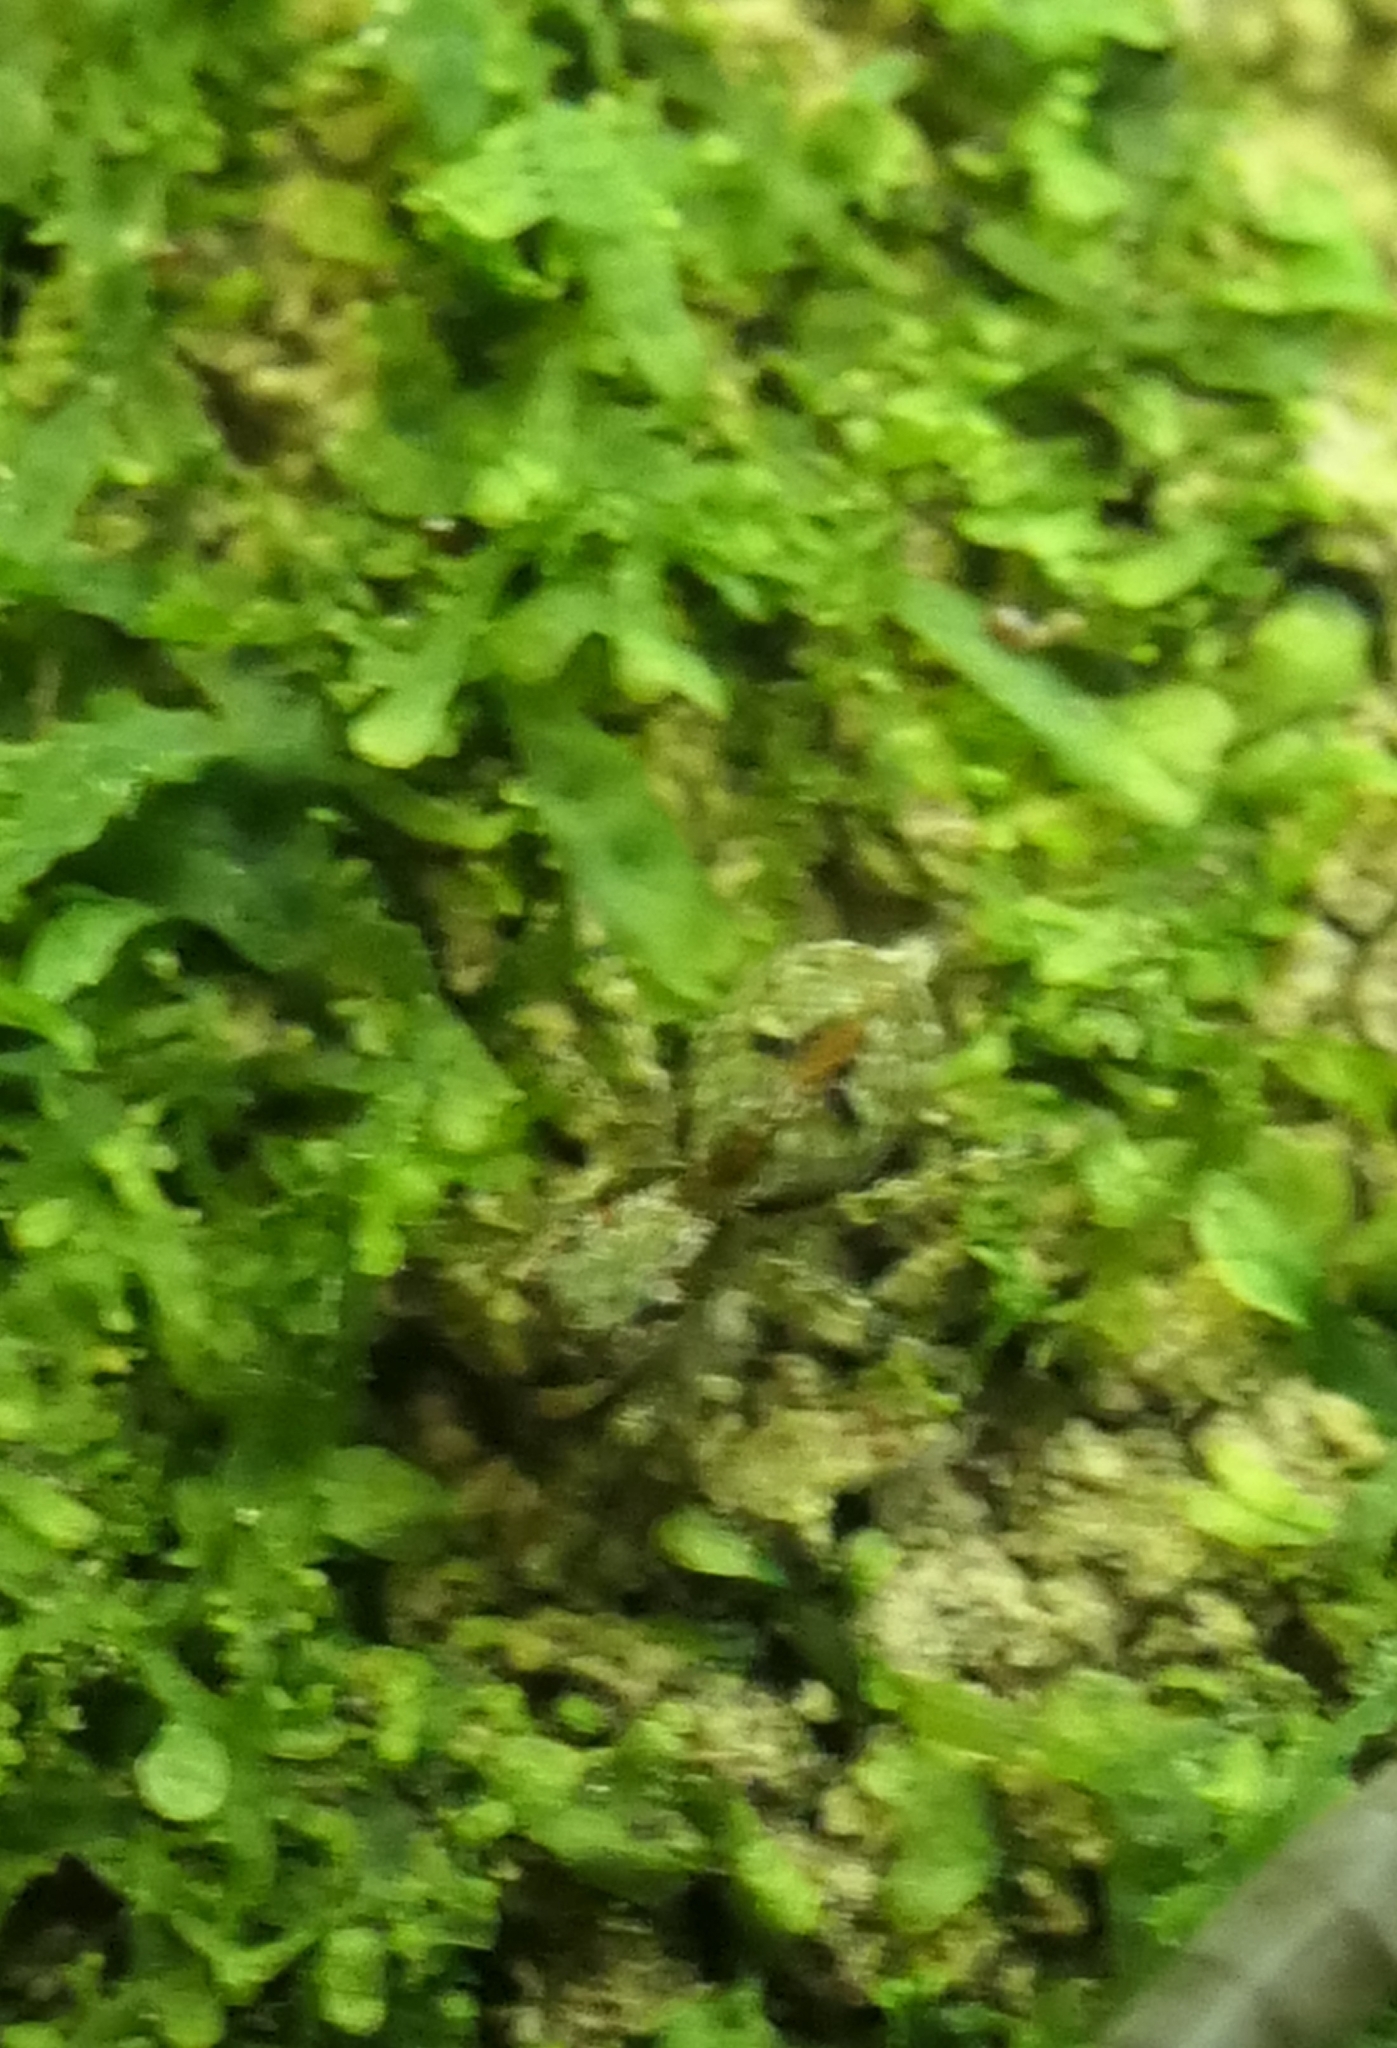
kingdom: Animalia
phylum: Arthropoda
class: Arachnida
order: Araneae
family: Salticidae
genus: Hinewaia
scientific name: Hinewaia embolica
